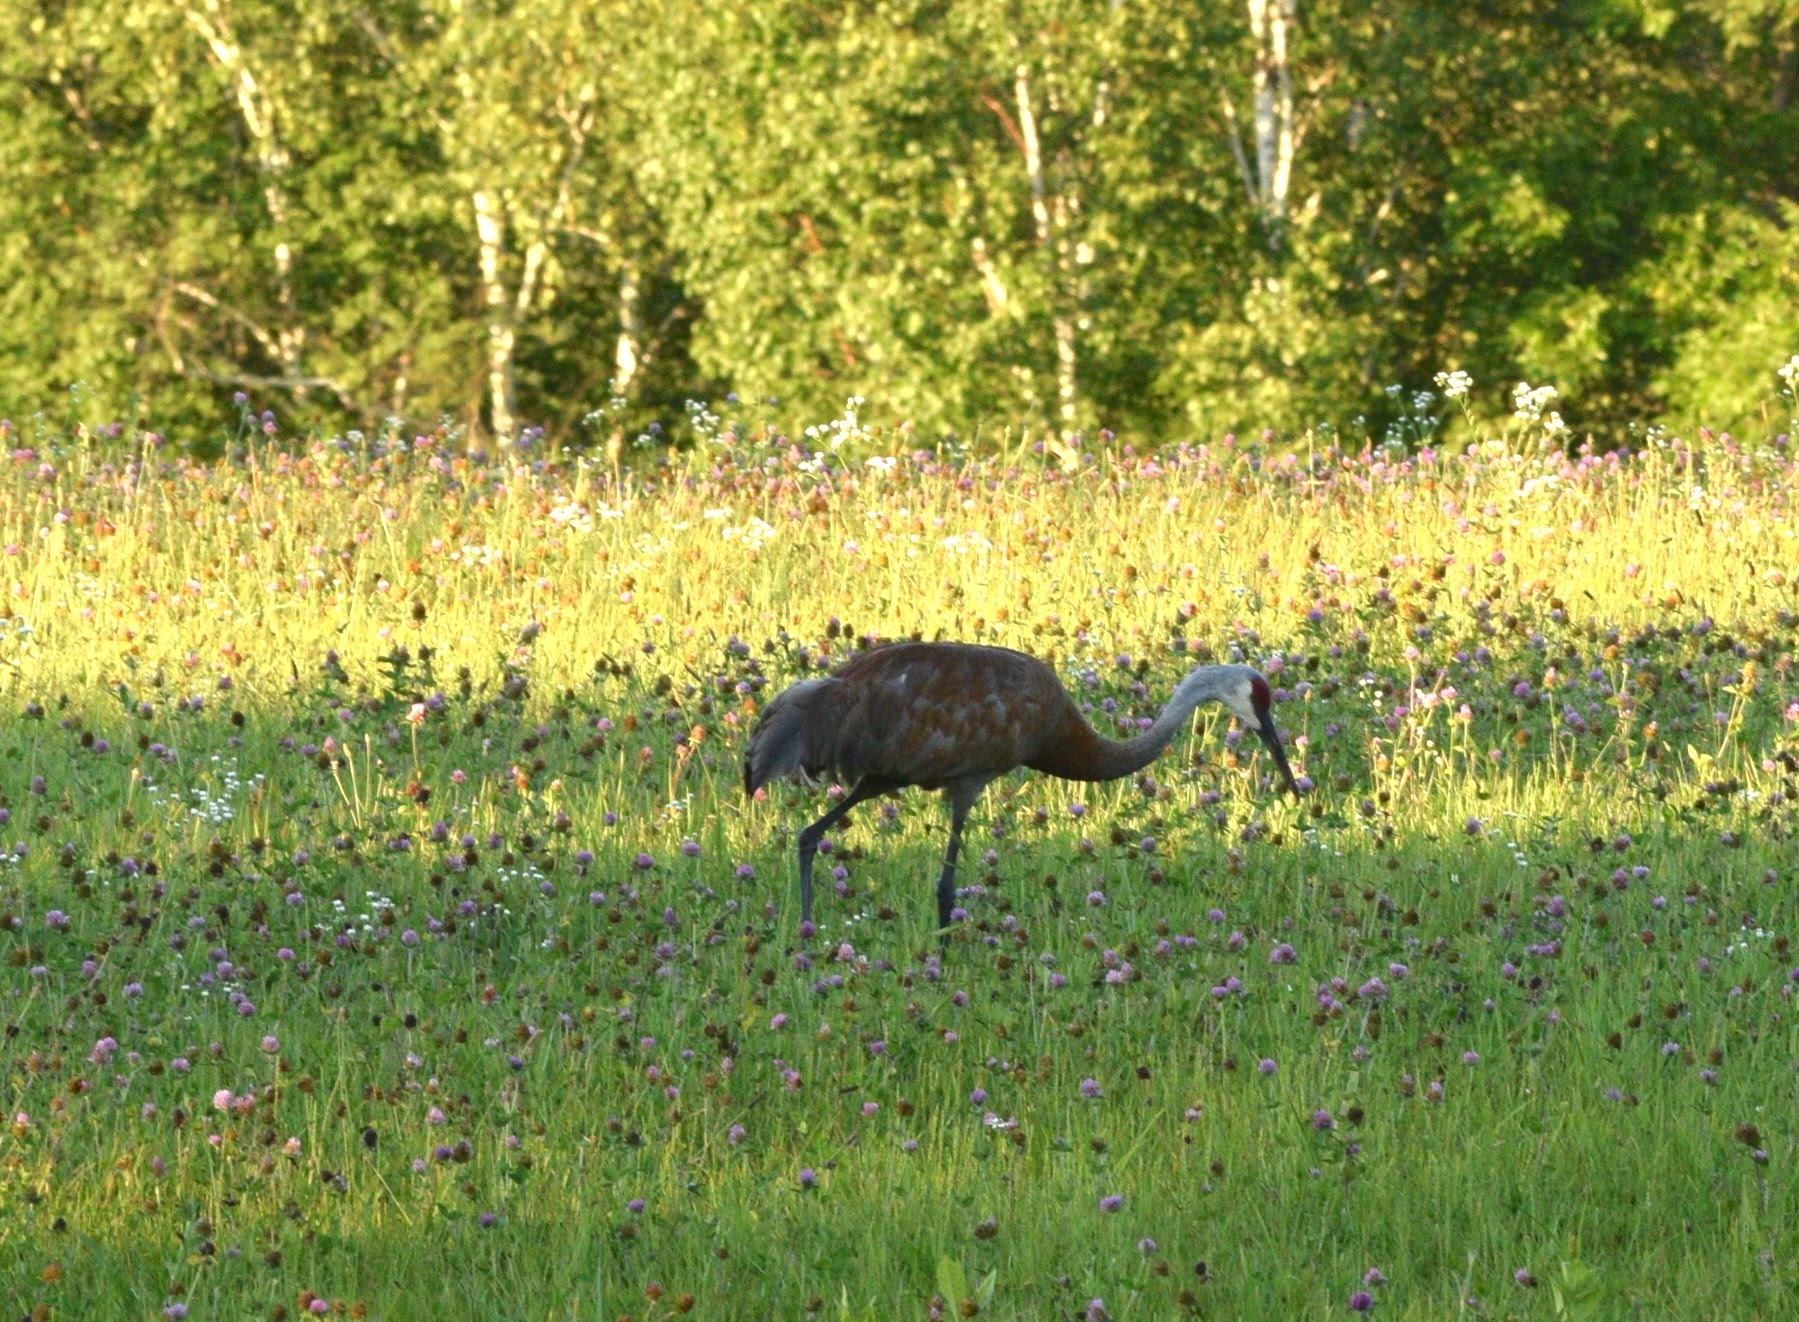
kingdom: Animalia
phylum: Chordata
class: Aves
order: Gruiformes
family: Gruidae
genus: Grus
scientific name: Grus canadensis
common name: Sandhill crane
